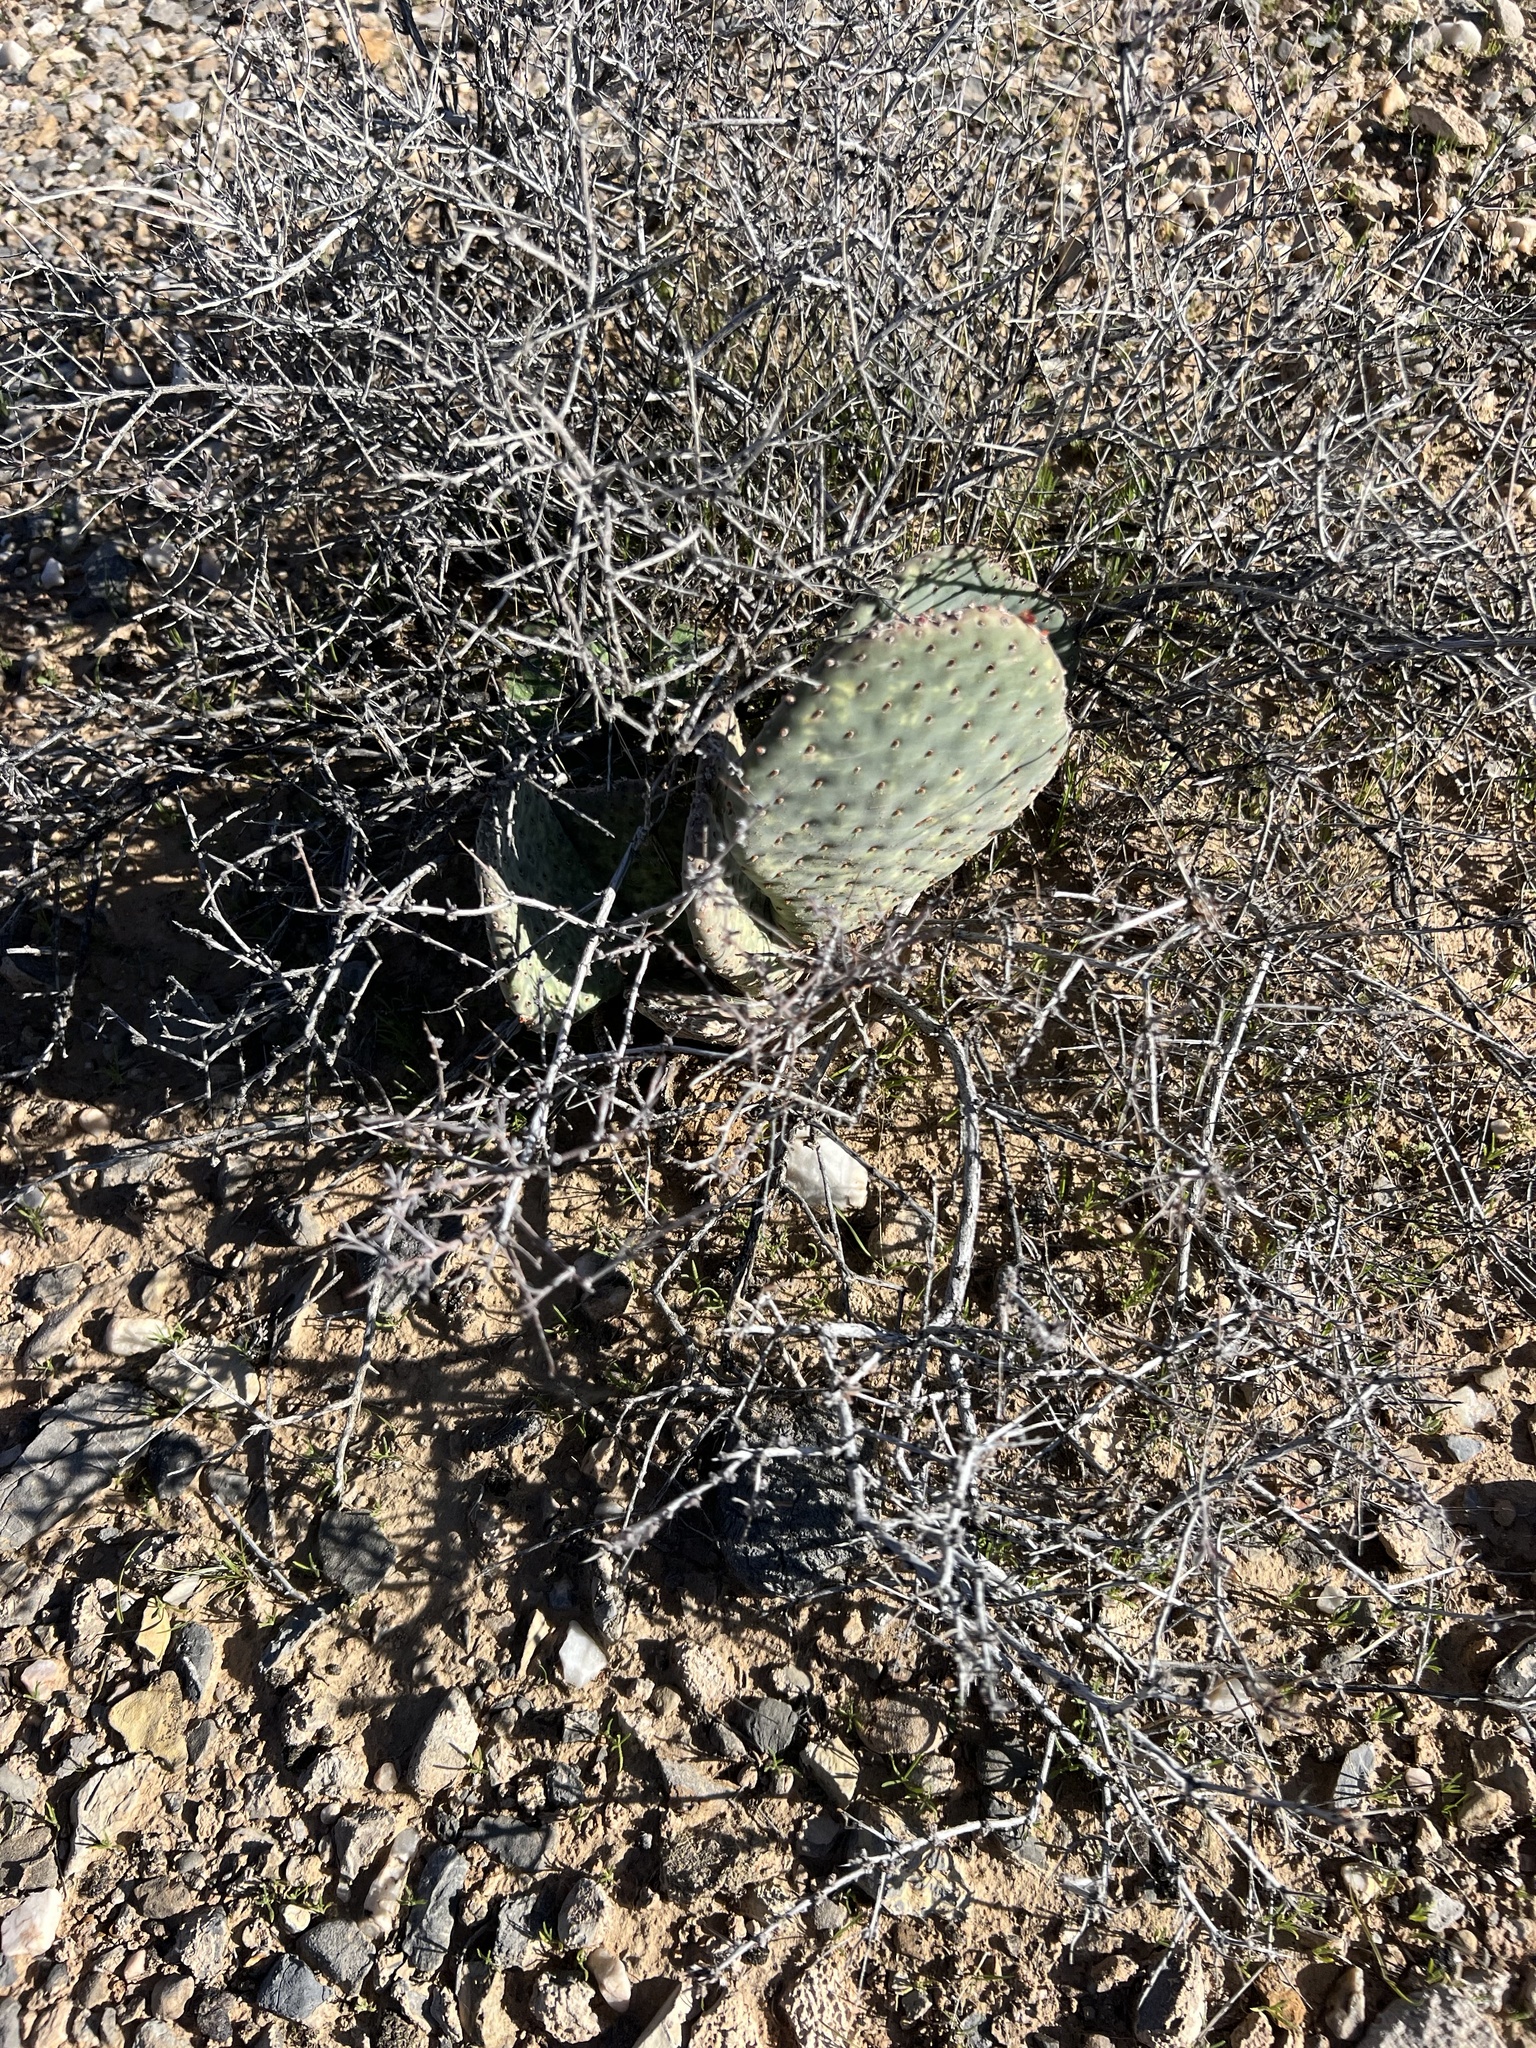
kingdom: Plantae
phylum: Tracheophyta
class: Magnoliopsida
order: Caryophyllales
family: Cactaceae
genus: Opuntia
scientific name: Opuntia basilaris
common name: Beavertail prickly-pear
